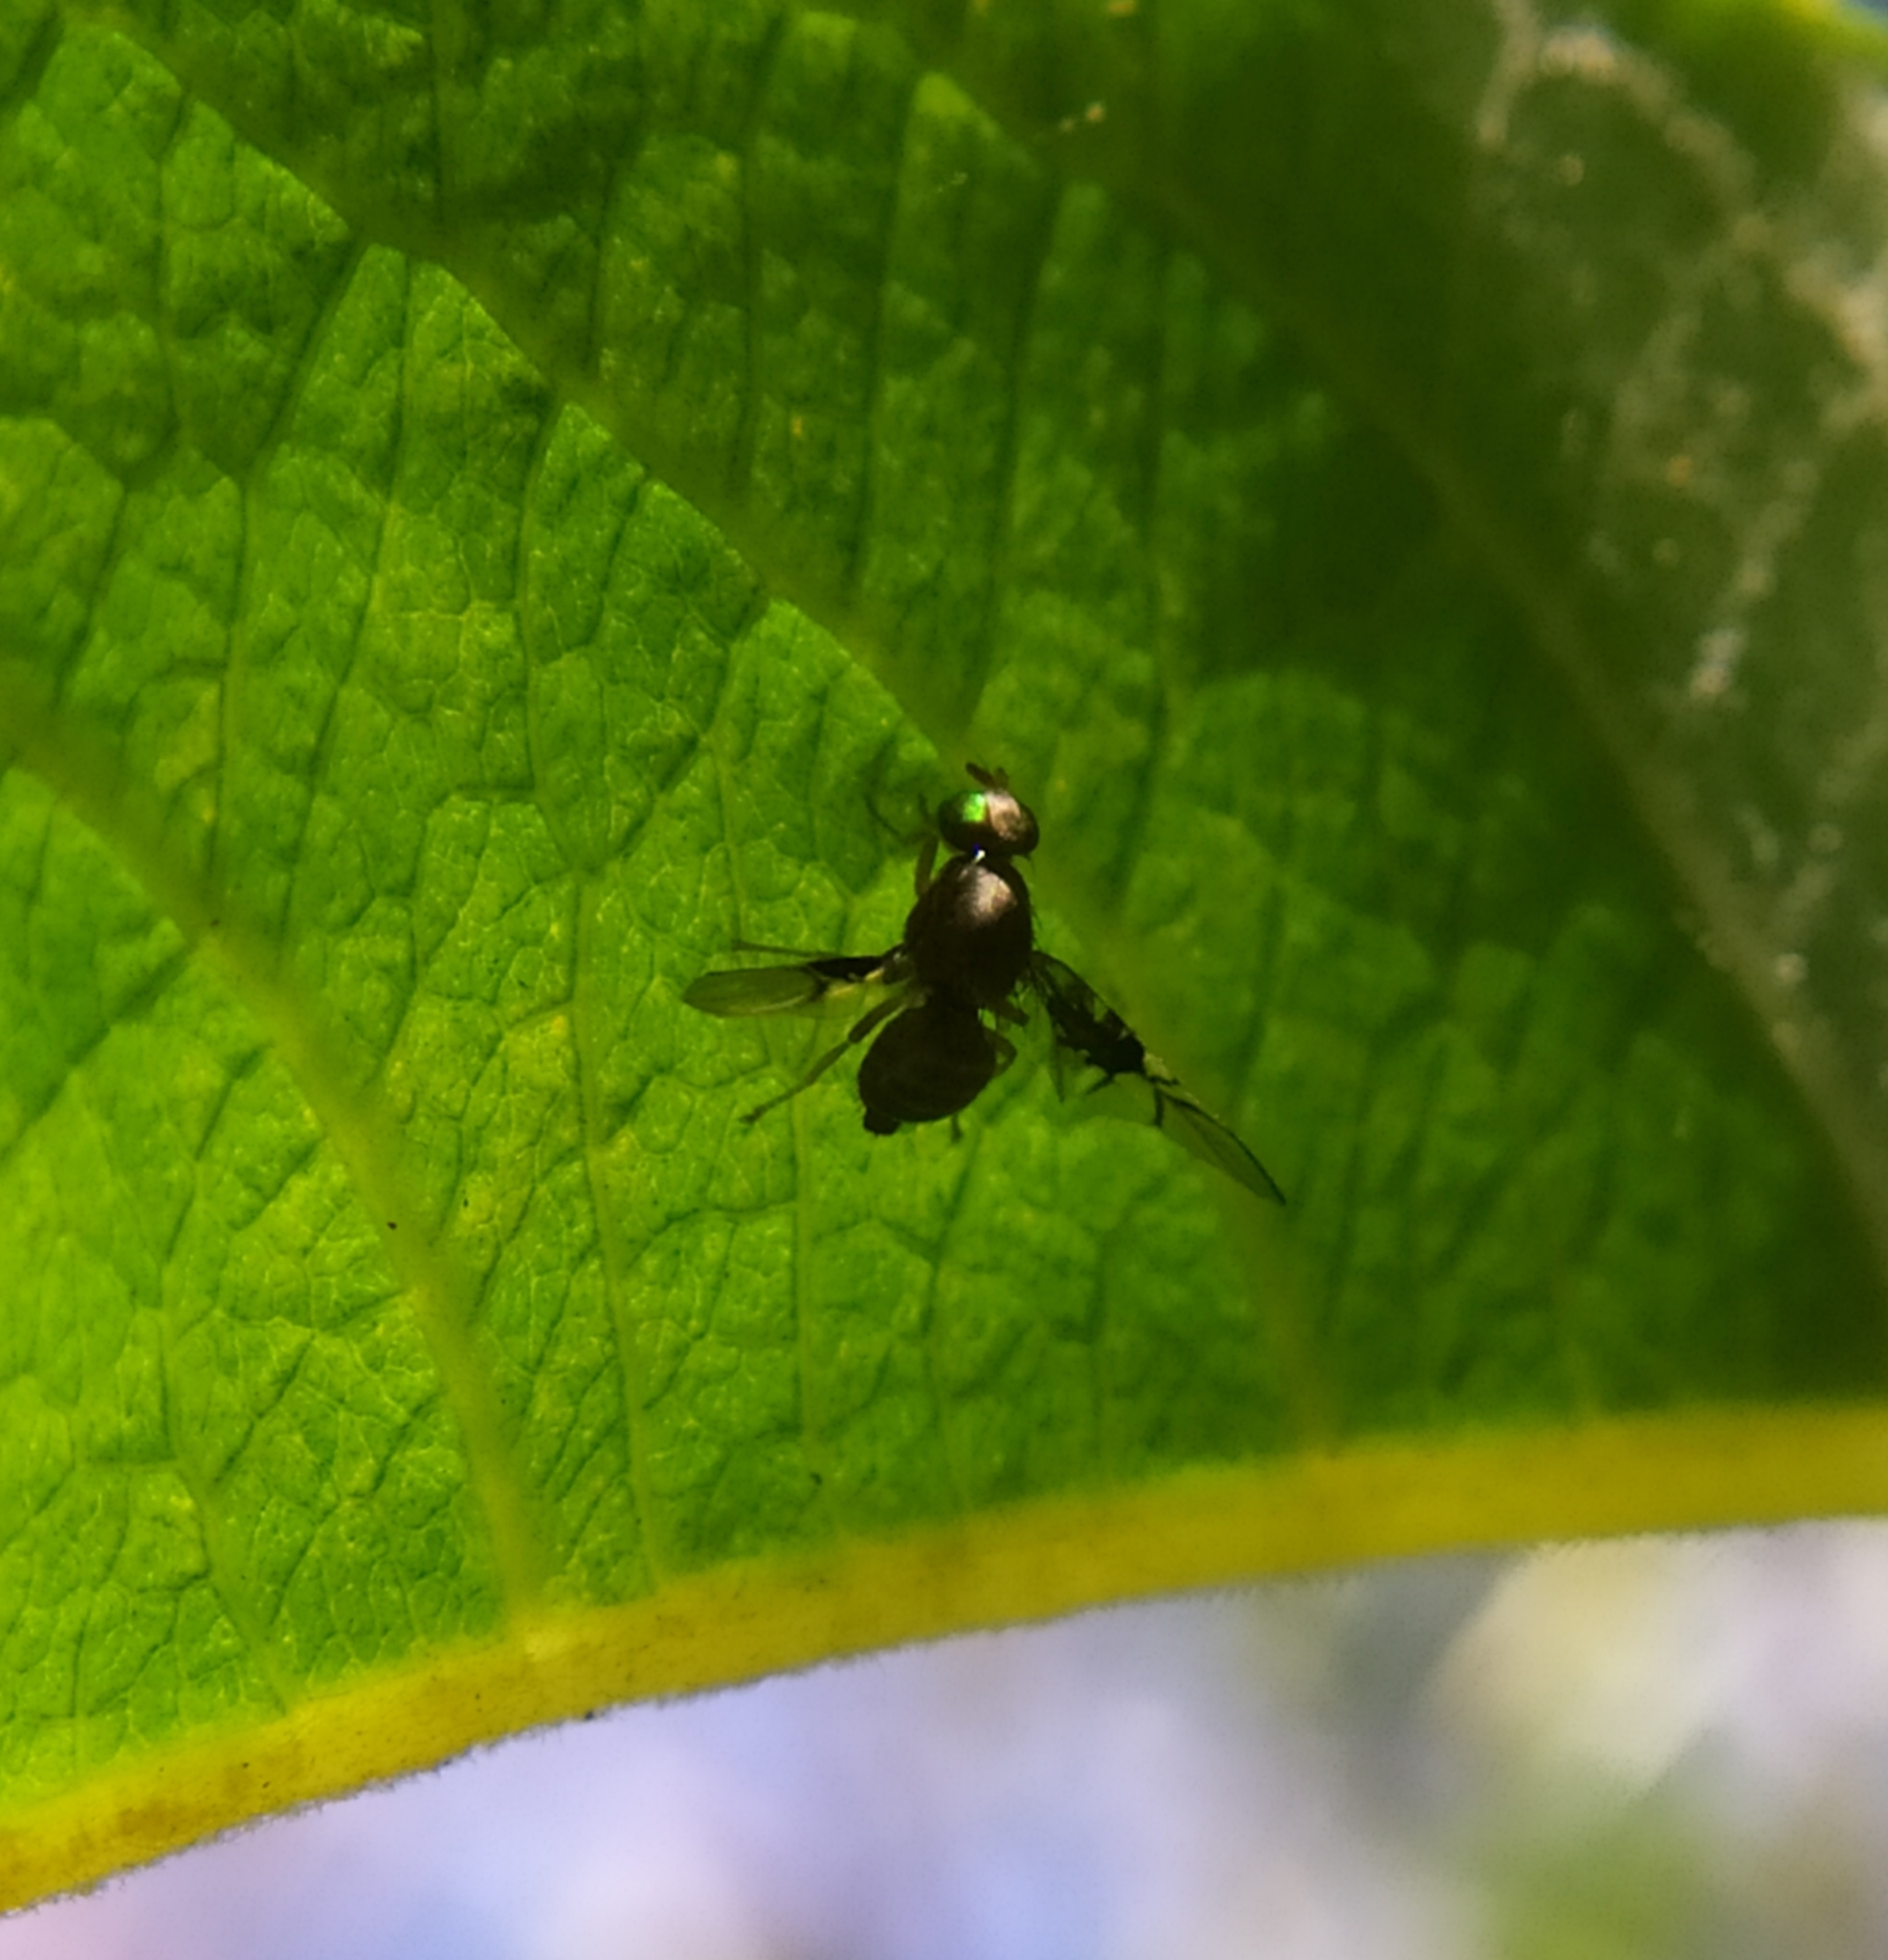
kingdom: Animalia
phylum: Arthropoda
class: Insecta
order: Diptera
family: Tephritidae
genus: Anomoia
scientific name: Anomoia purmunda
